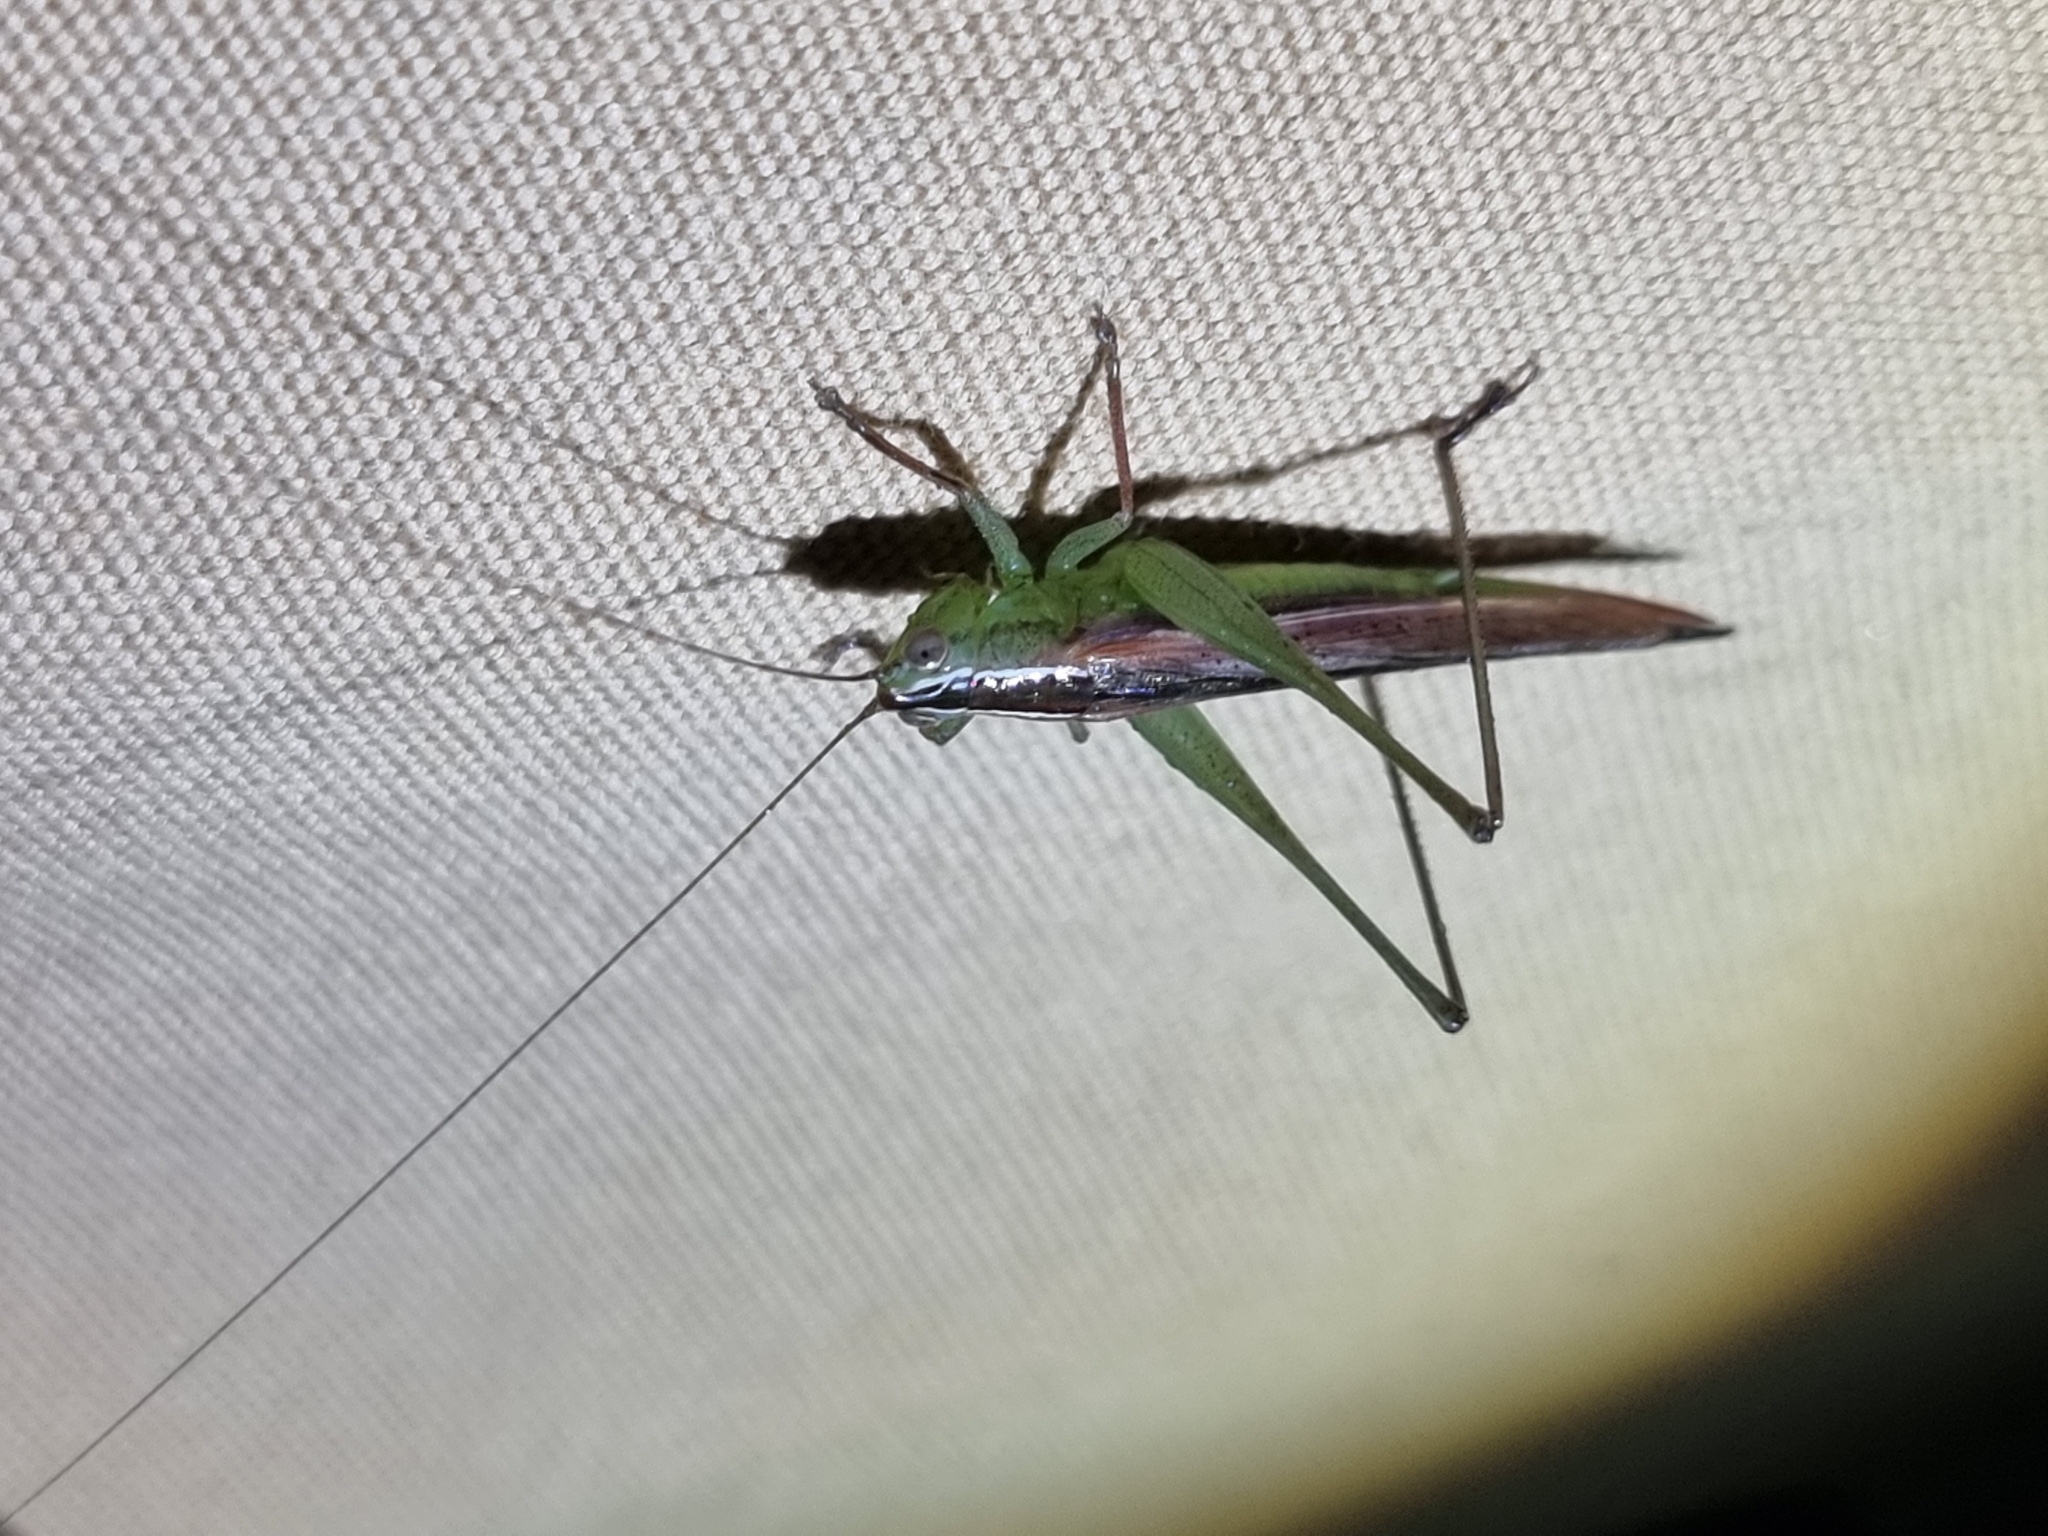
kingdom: Animalia
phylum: Arthropoda
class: Insecta
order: Orthoptera
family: Tettigoniidae
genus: Conocephalus
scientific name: Conocephalus upoluensis
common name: Upolu meadow katydid
